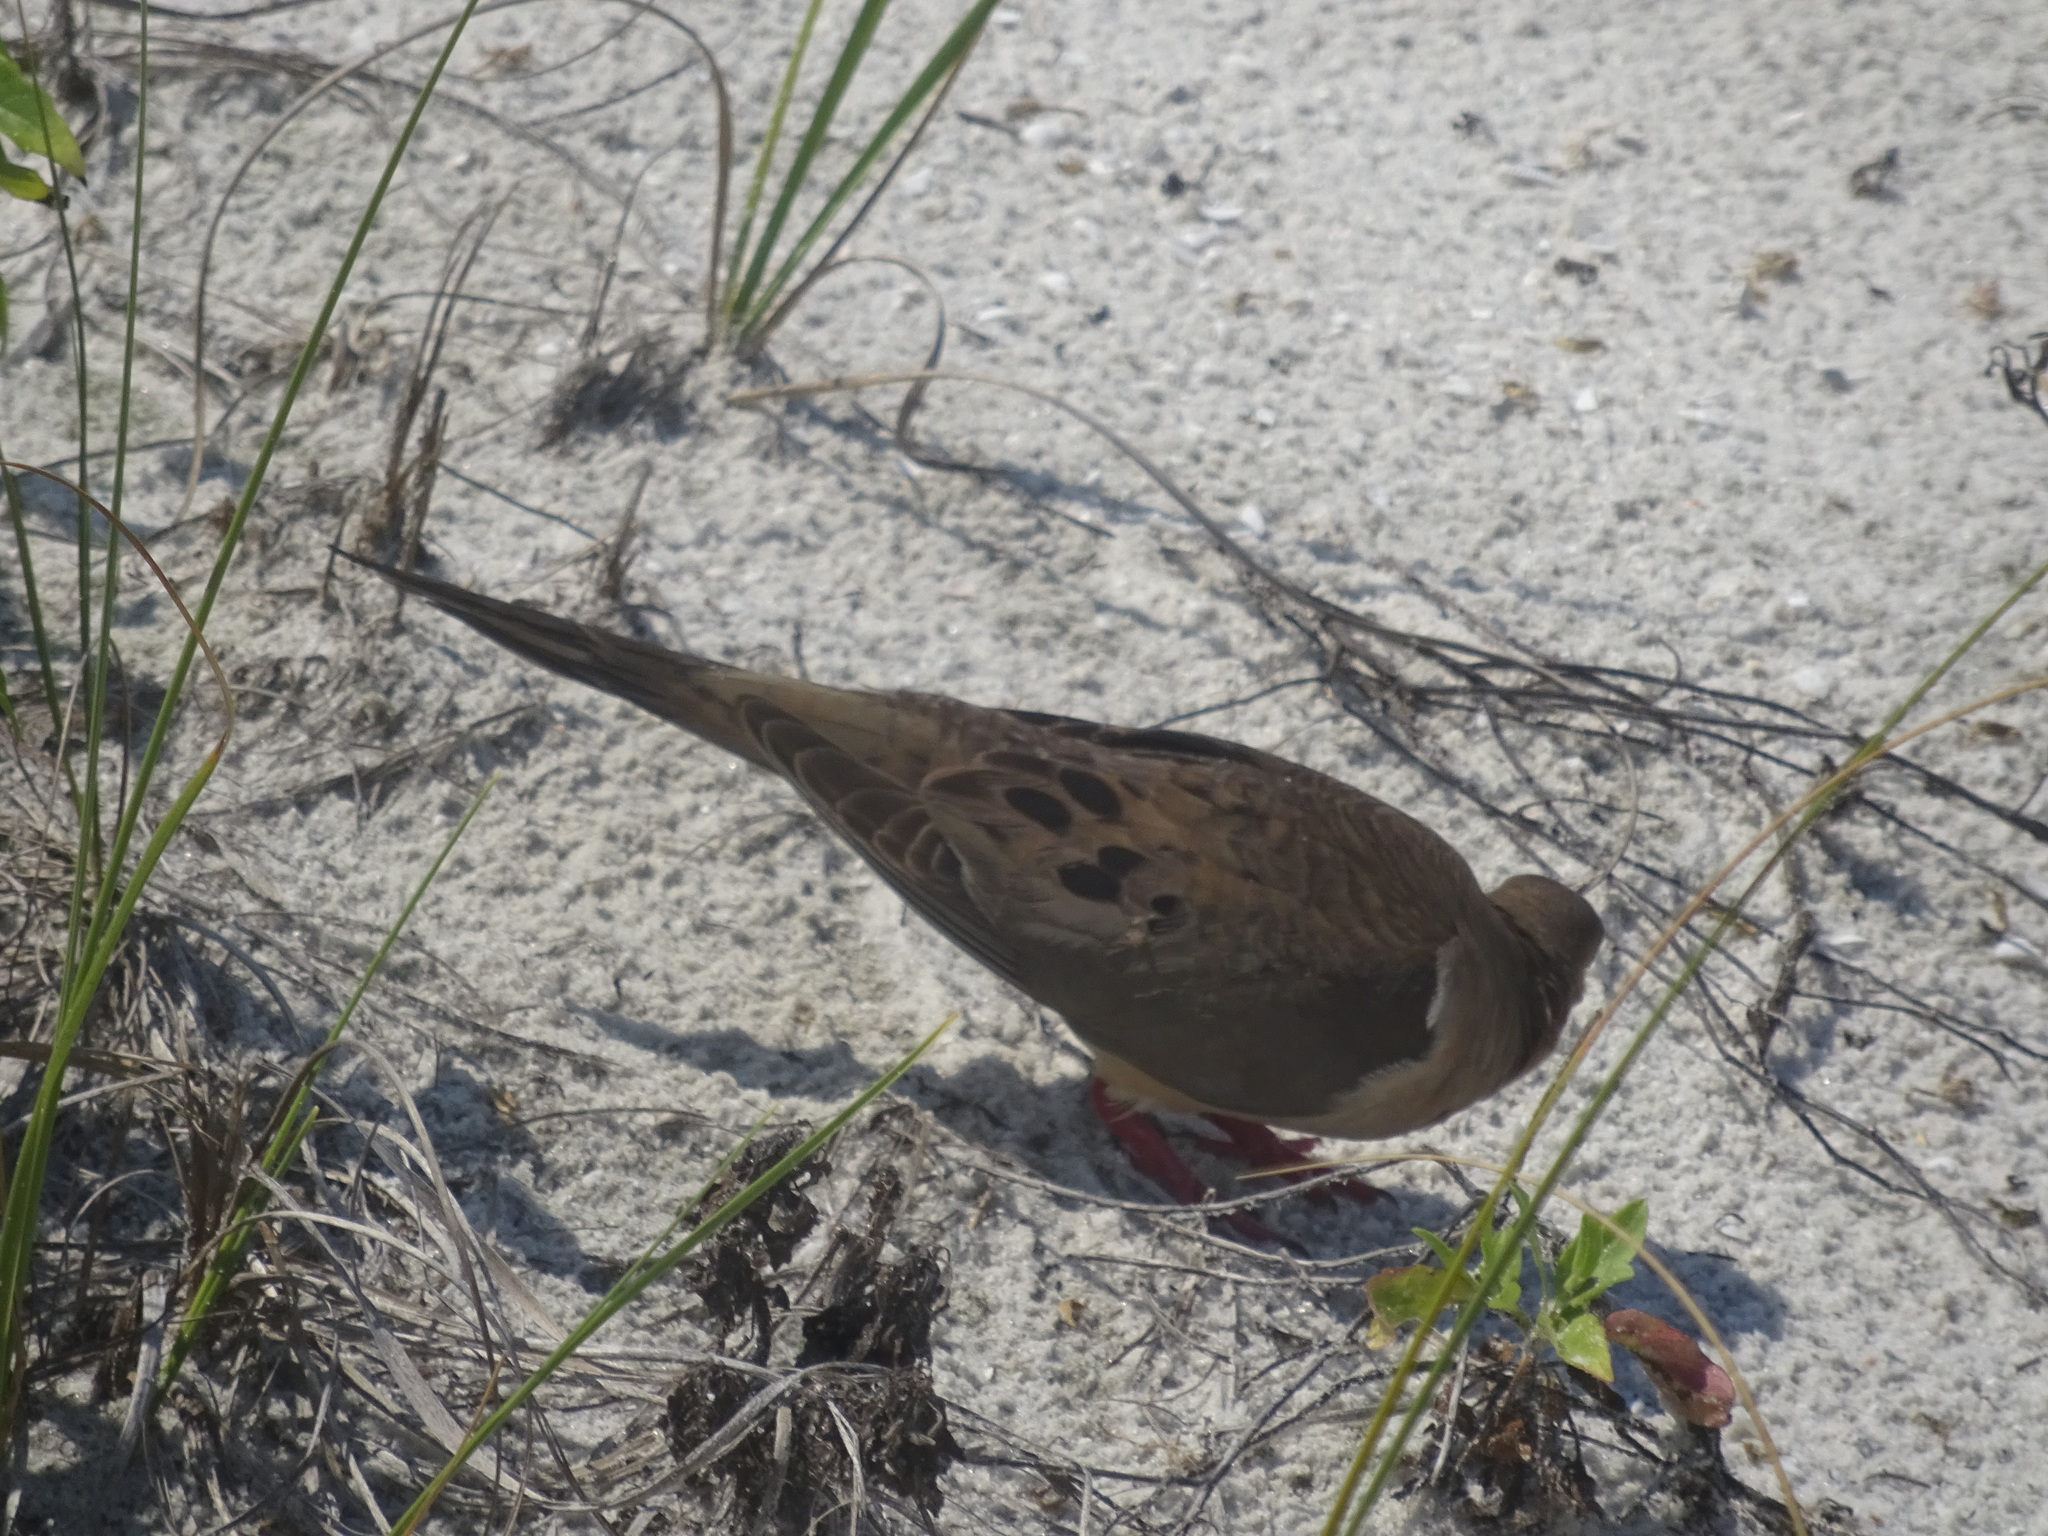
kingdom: Animalia
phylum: Chordata
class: Aves
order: Columbiformes
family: Columbidae
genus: Zenaida
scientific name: Zenaida macroura
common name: Mourning dove
